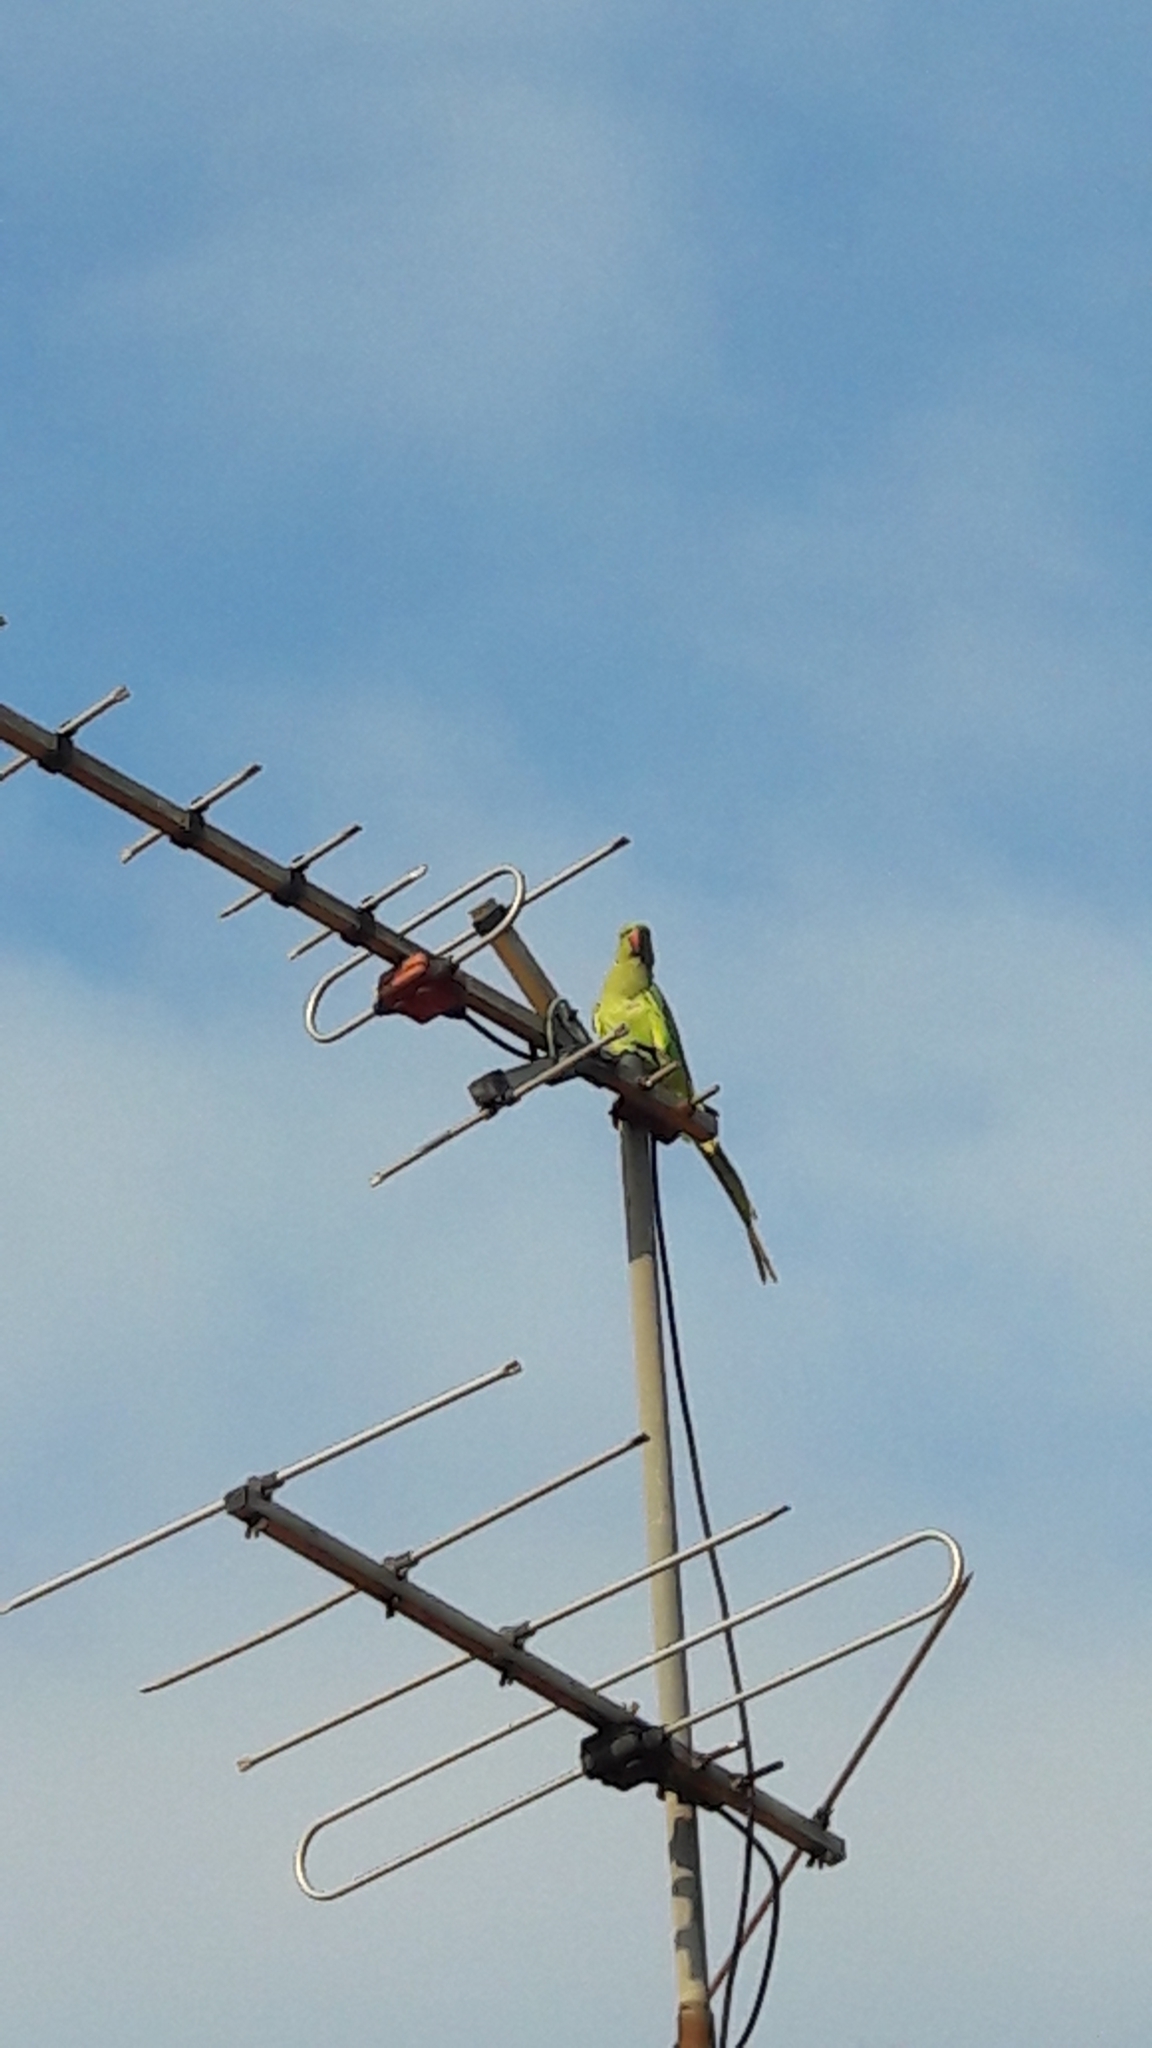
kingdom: Animalia
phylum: Chordata
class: Aves
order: Psittaciformes
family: Psittacidae
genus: Psittacula
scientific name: Psittacula krameri
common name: Rose-ringed parakeet
